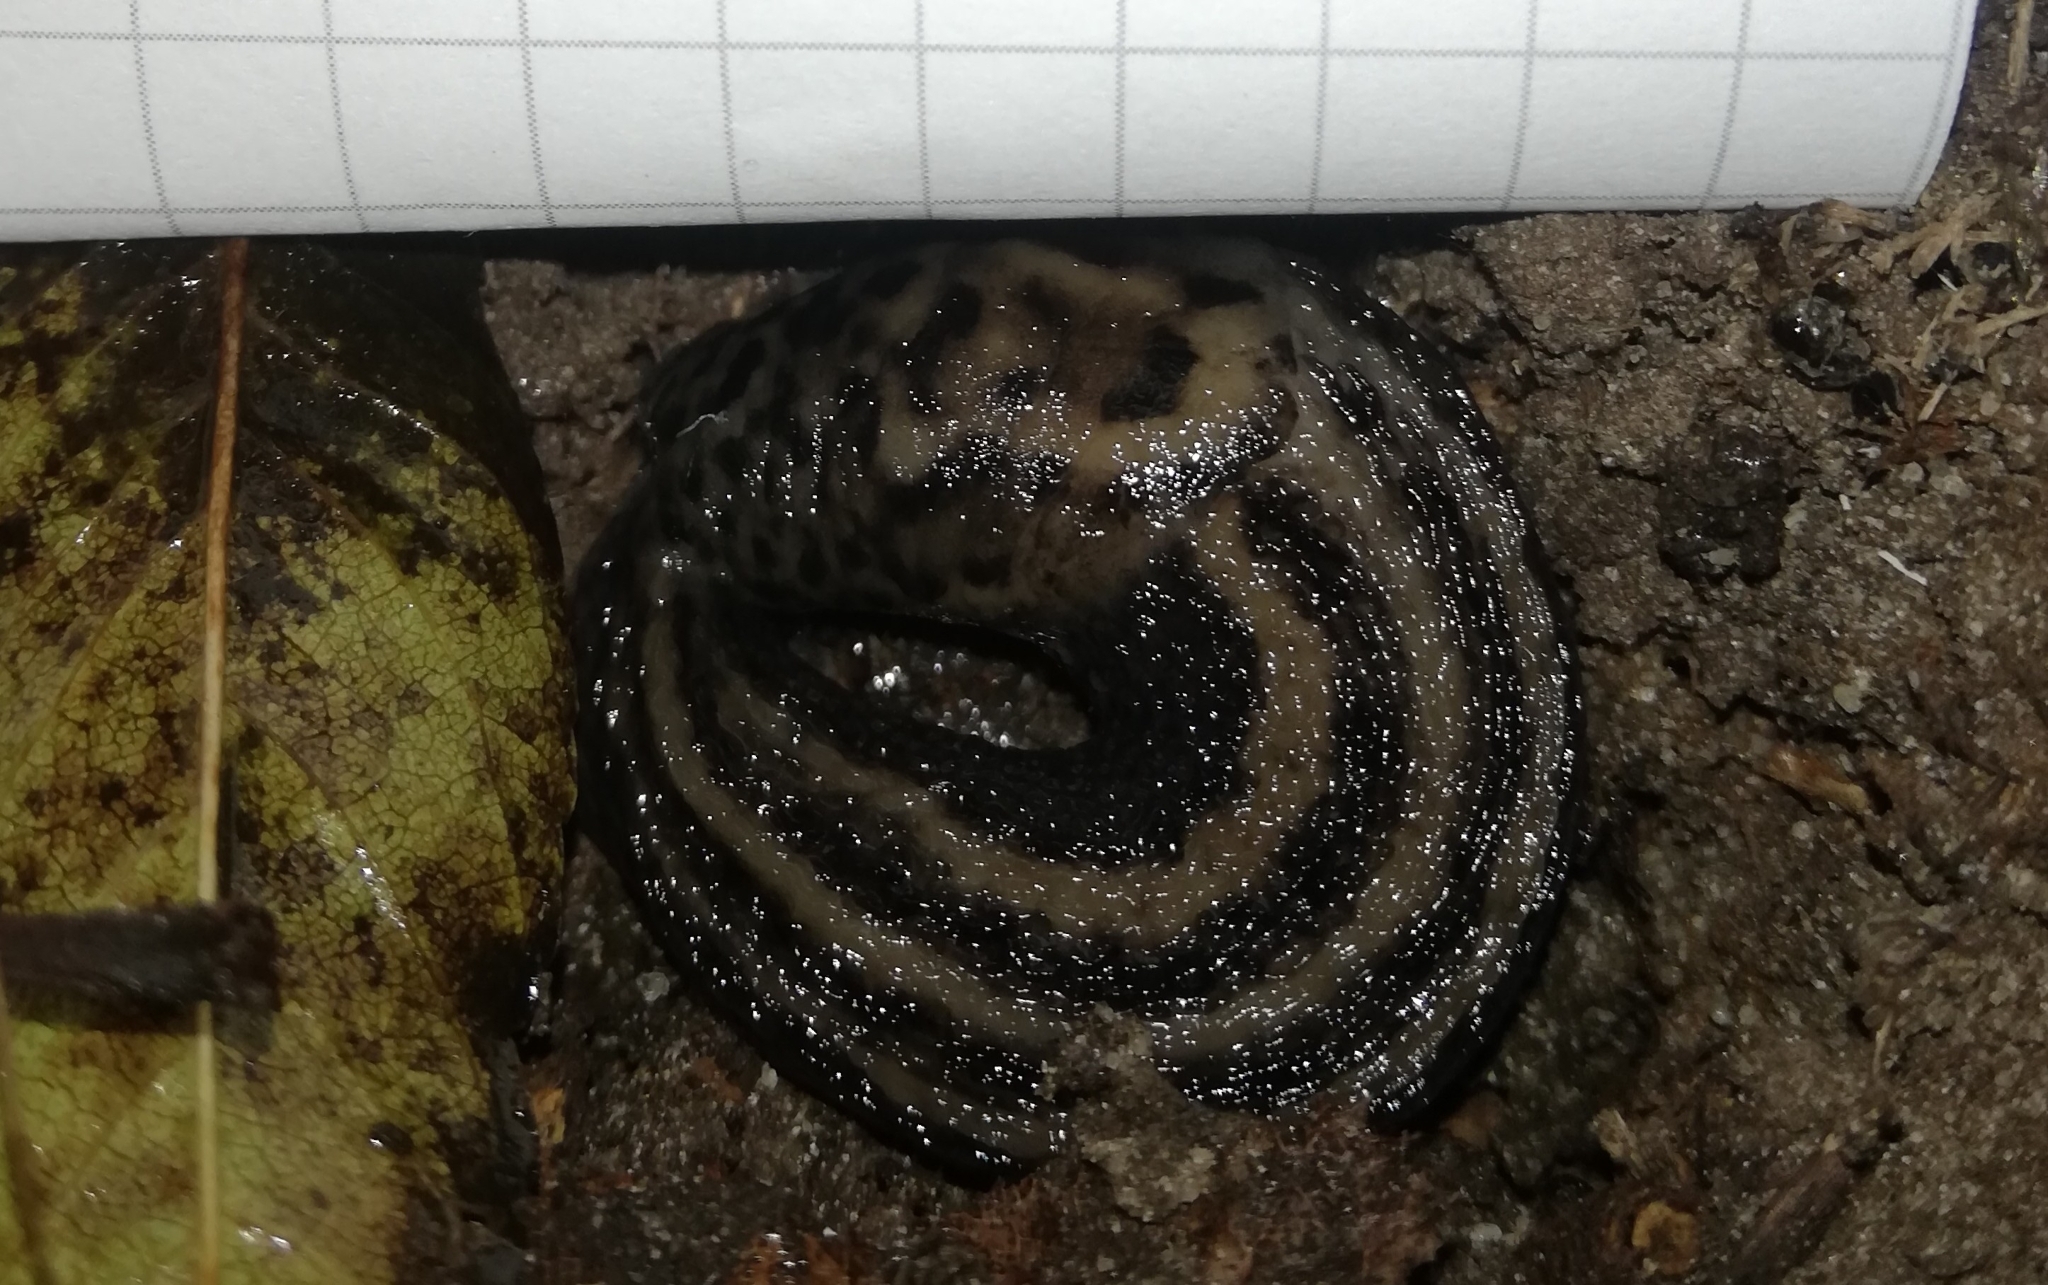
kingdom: Animalia
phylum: Mollusca
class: Gastropoda
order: Stylommatophora
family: Limacidae
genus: Limax
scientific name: Limax maximus
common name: Great grey slug
